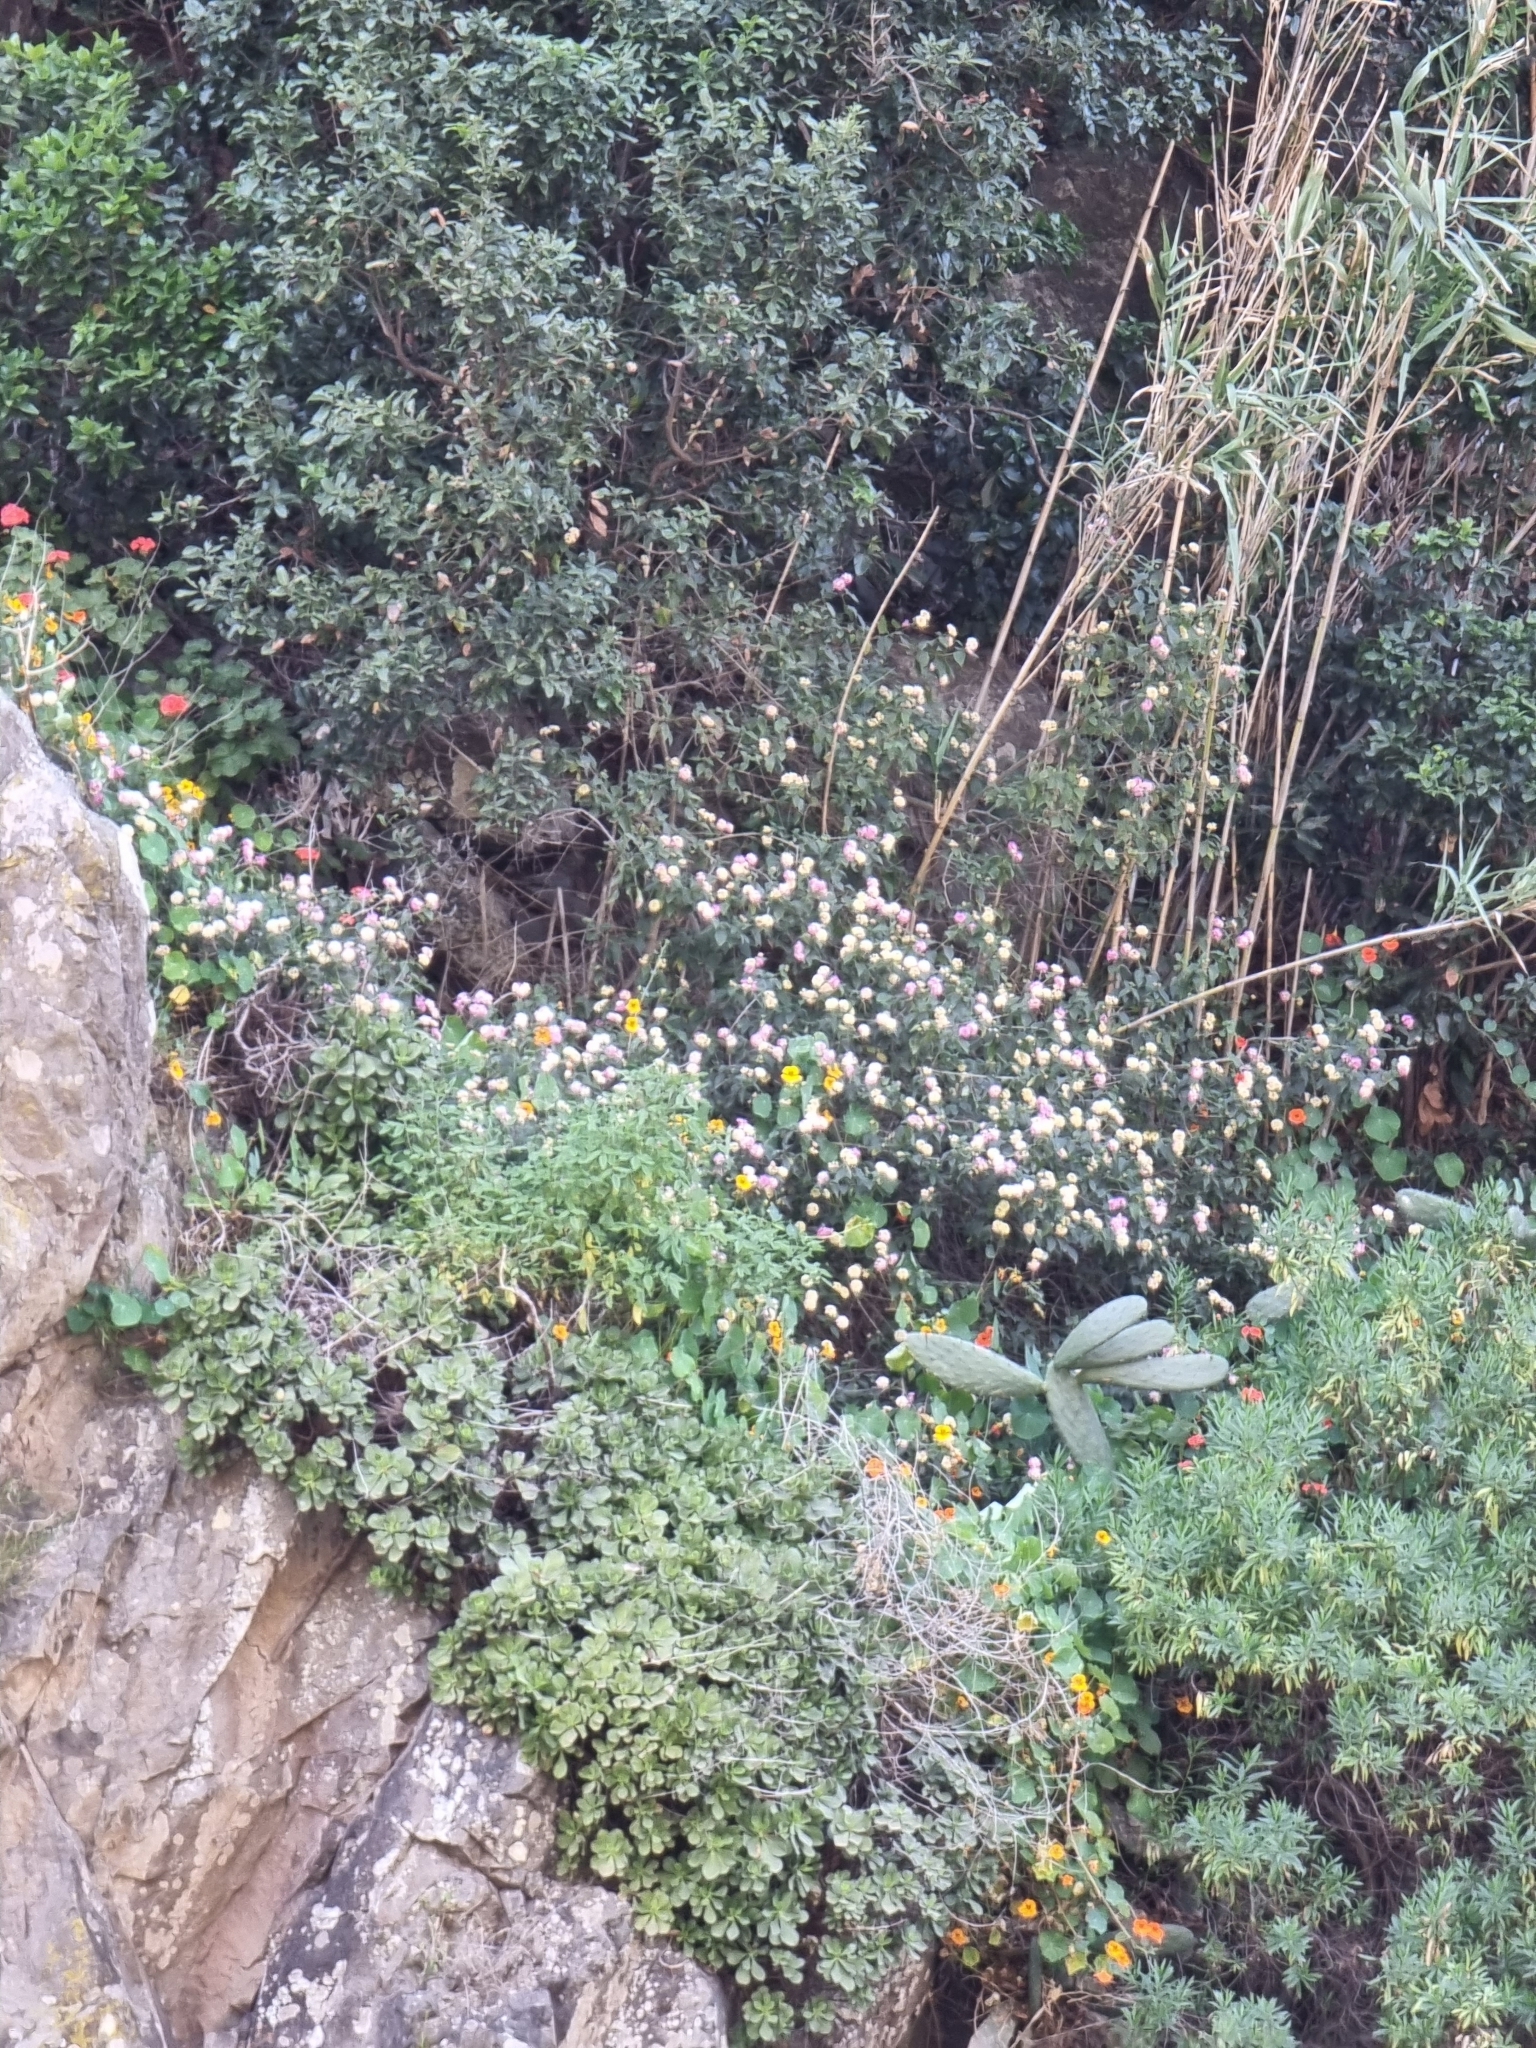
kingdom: Plantae
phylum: Tracheophyta
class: Magnoliopsida
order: Brassicales
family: Tropaeolaceae
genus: Tropaeolum
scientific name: Tropaeolum majus
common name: Nasturtium
